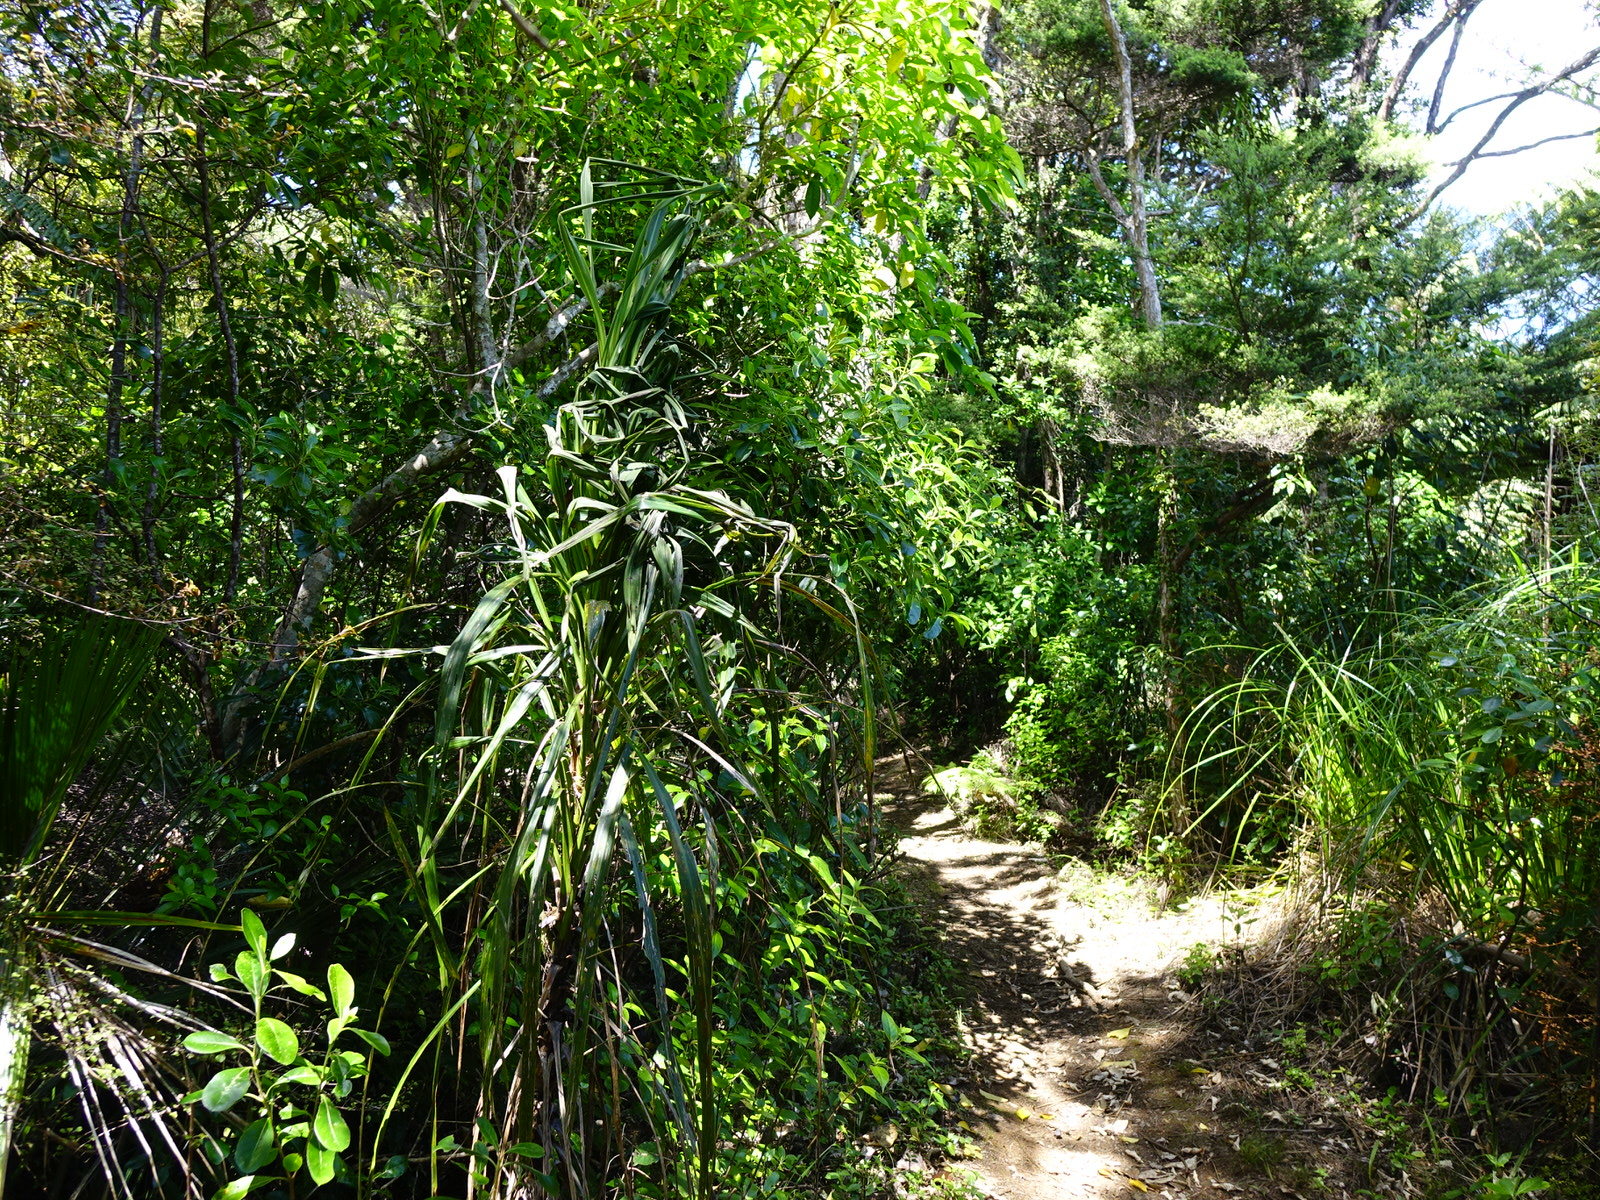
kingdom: Plantae
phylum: Tracheophyta
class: Liliopsida
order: Asparagales
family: Asparagaceae
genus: Cordyline
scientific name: Cordyline banksii
